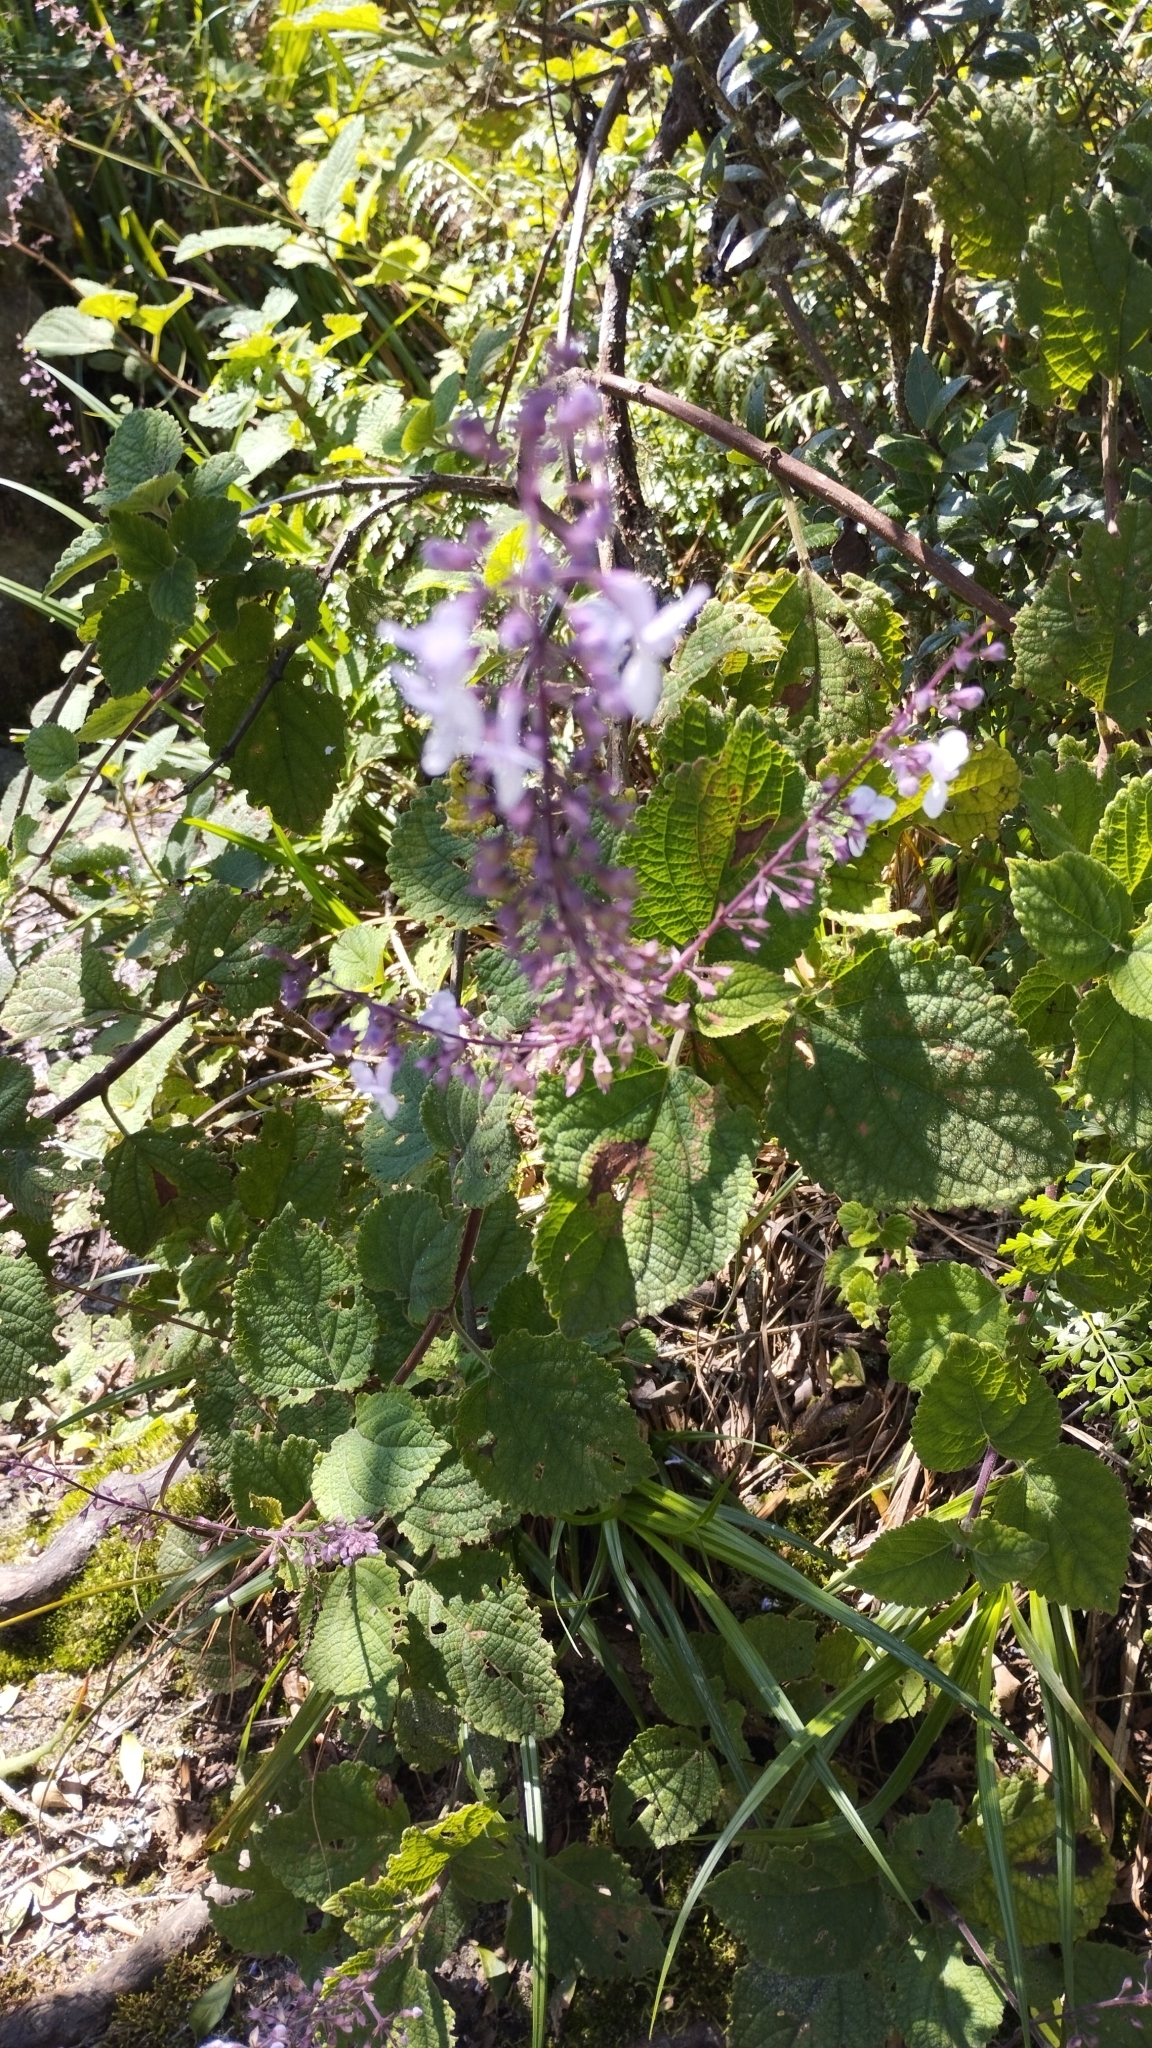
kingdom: Plantae
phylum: Tracheophyta
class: Magnoliopsida
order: Lamiales
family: Lamiaceae
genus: Plectranthus
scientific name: Plectranthus fruticosus
